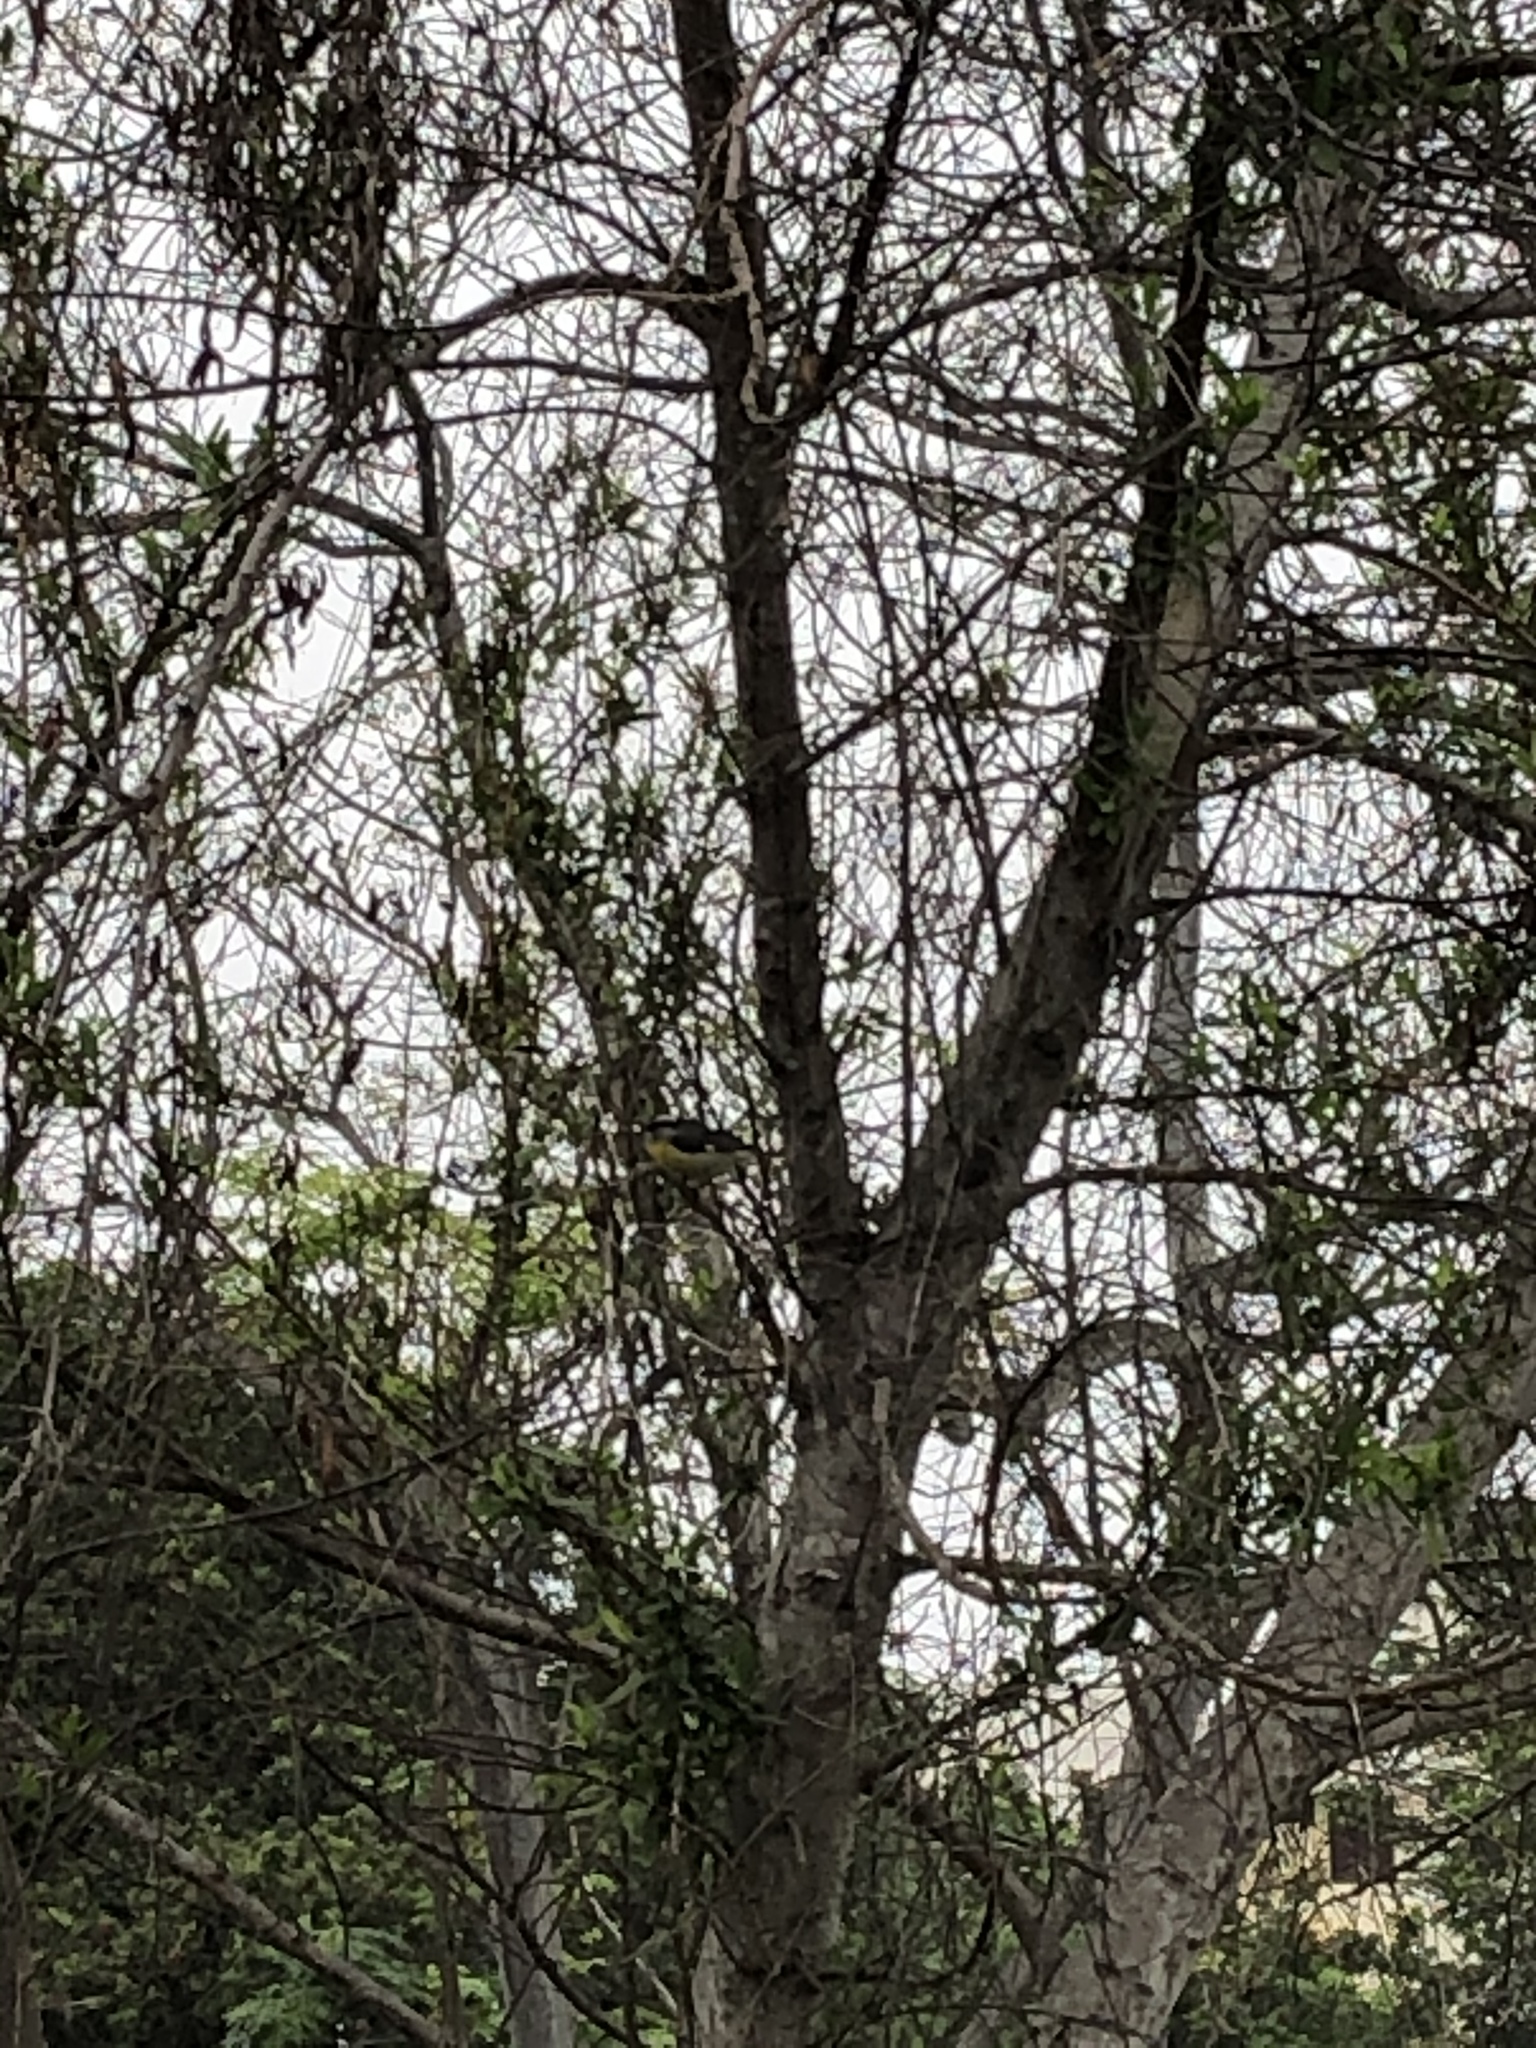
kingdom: Animalia
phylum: Chordata
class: Aves
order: Passeriformes
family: Thraupidae
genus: Coereba
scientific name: Coereba flaveola
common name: Bananaquit
